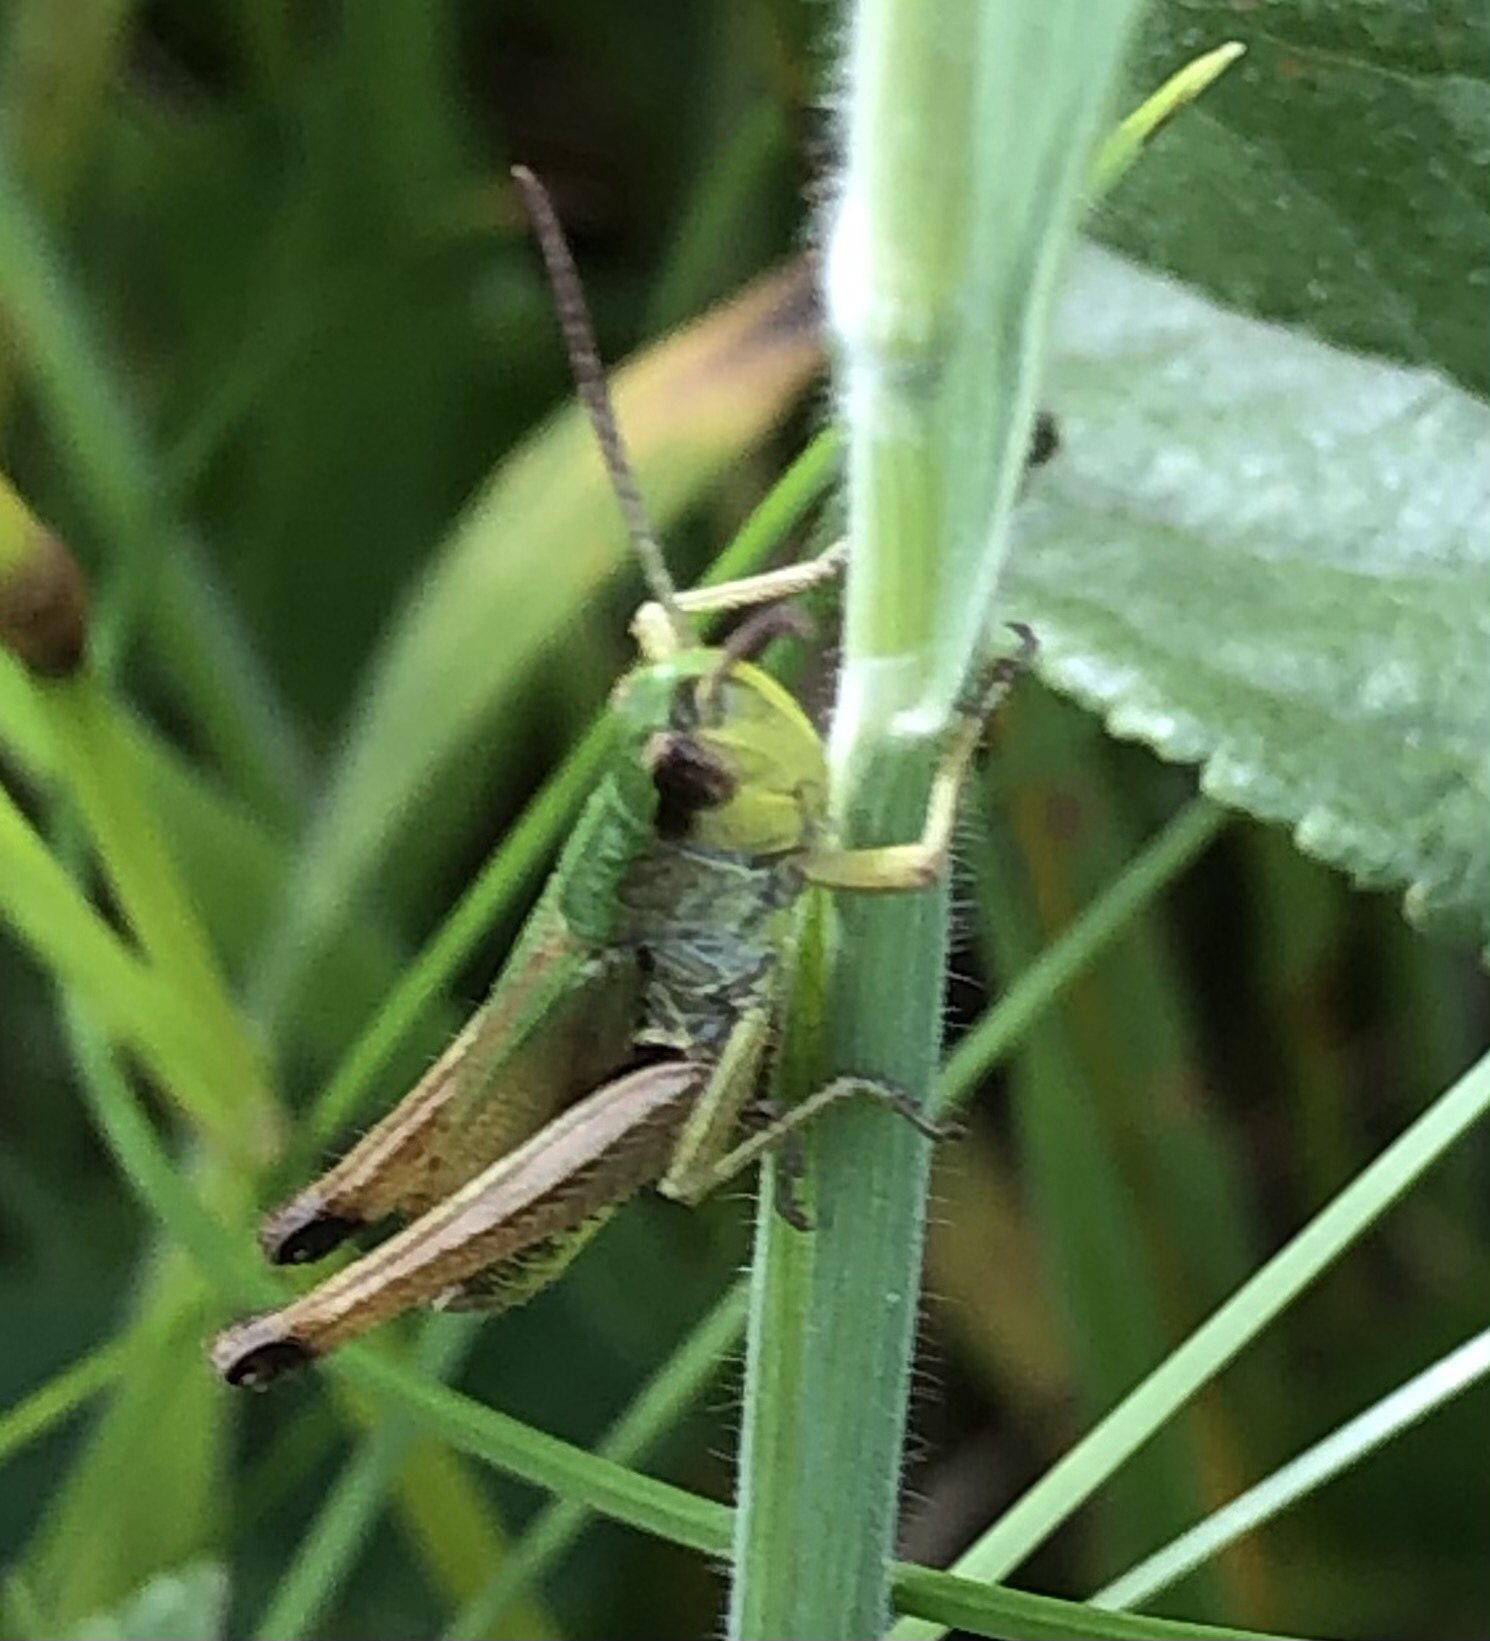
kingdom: Animalia
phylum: Arthropoda
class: Insecta
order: Orthoptera
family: Acrididae
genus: Pseudochorthippus
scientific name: Pseudochorthippus parallelus
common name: Meadow grasshopper
